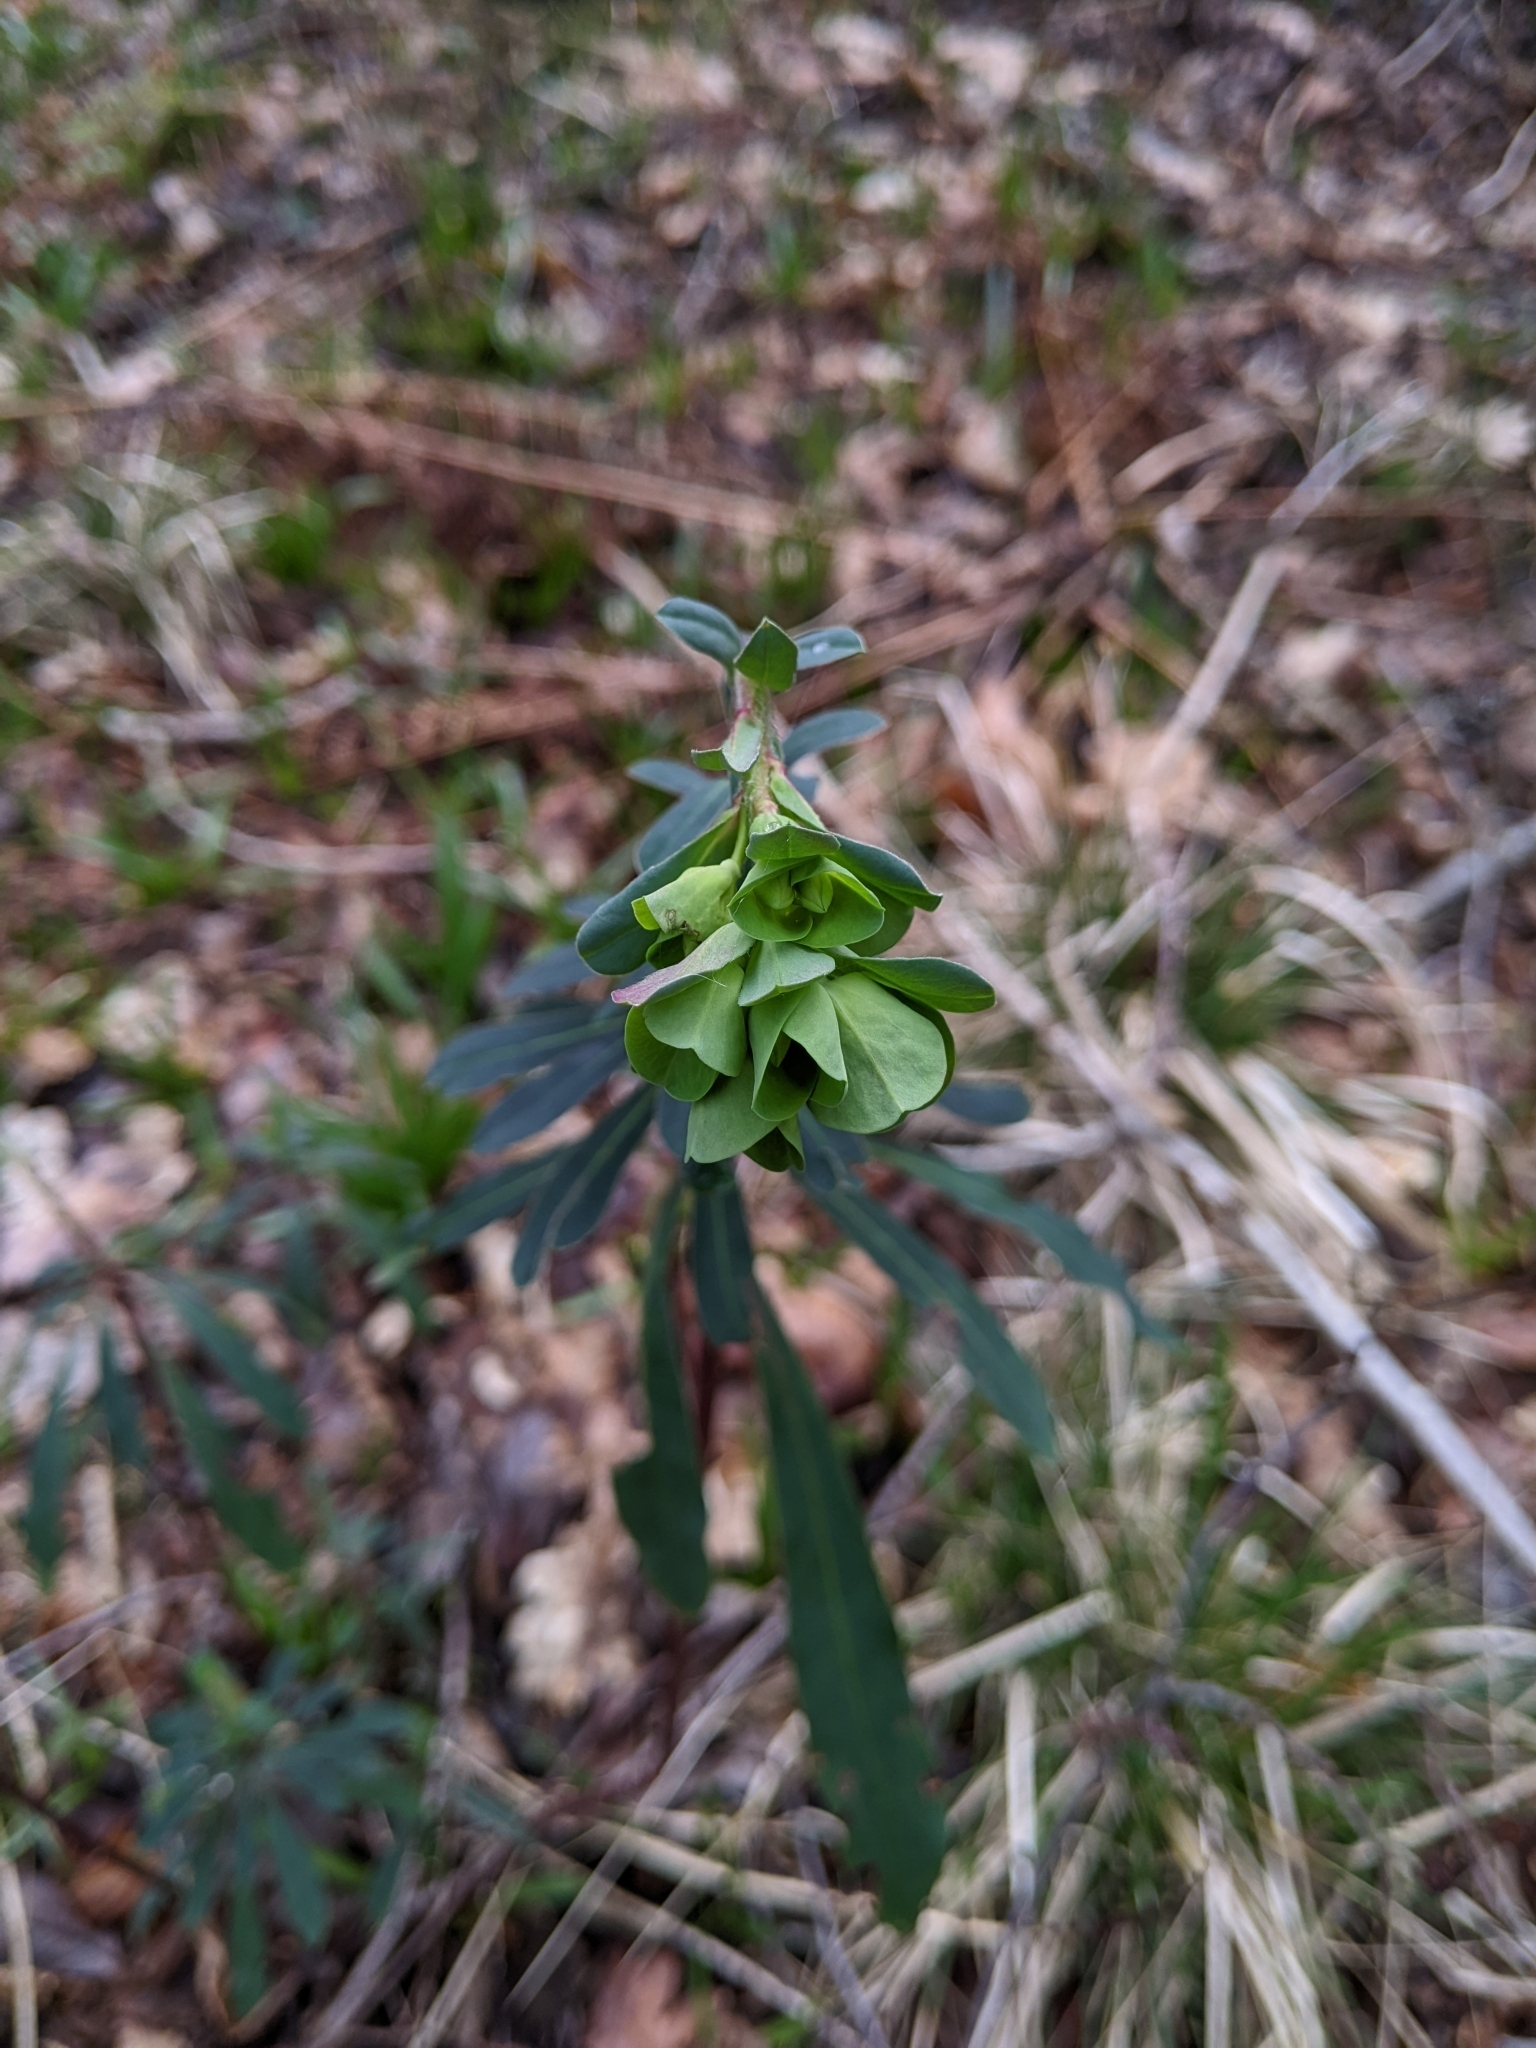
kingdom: Plantae
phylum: Tracheophyta
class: Magnoliopsida
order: Malpighiales
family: Euphorbiaceae
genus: Euphorbia
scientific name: Euphorbia amygdaloides
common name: Wood spurge
